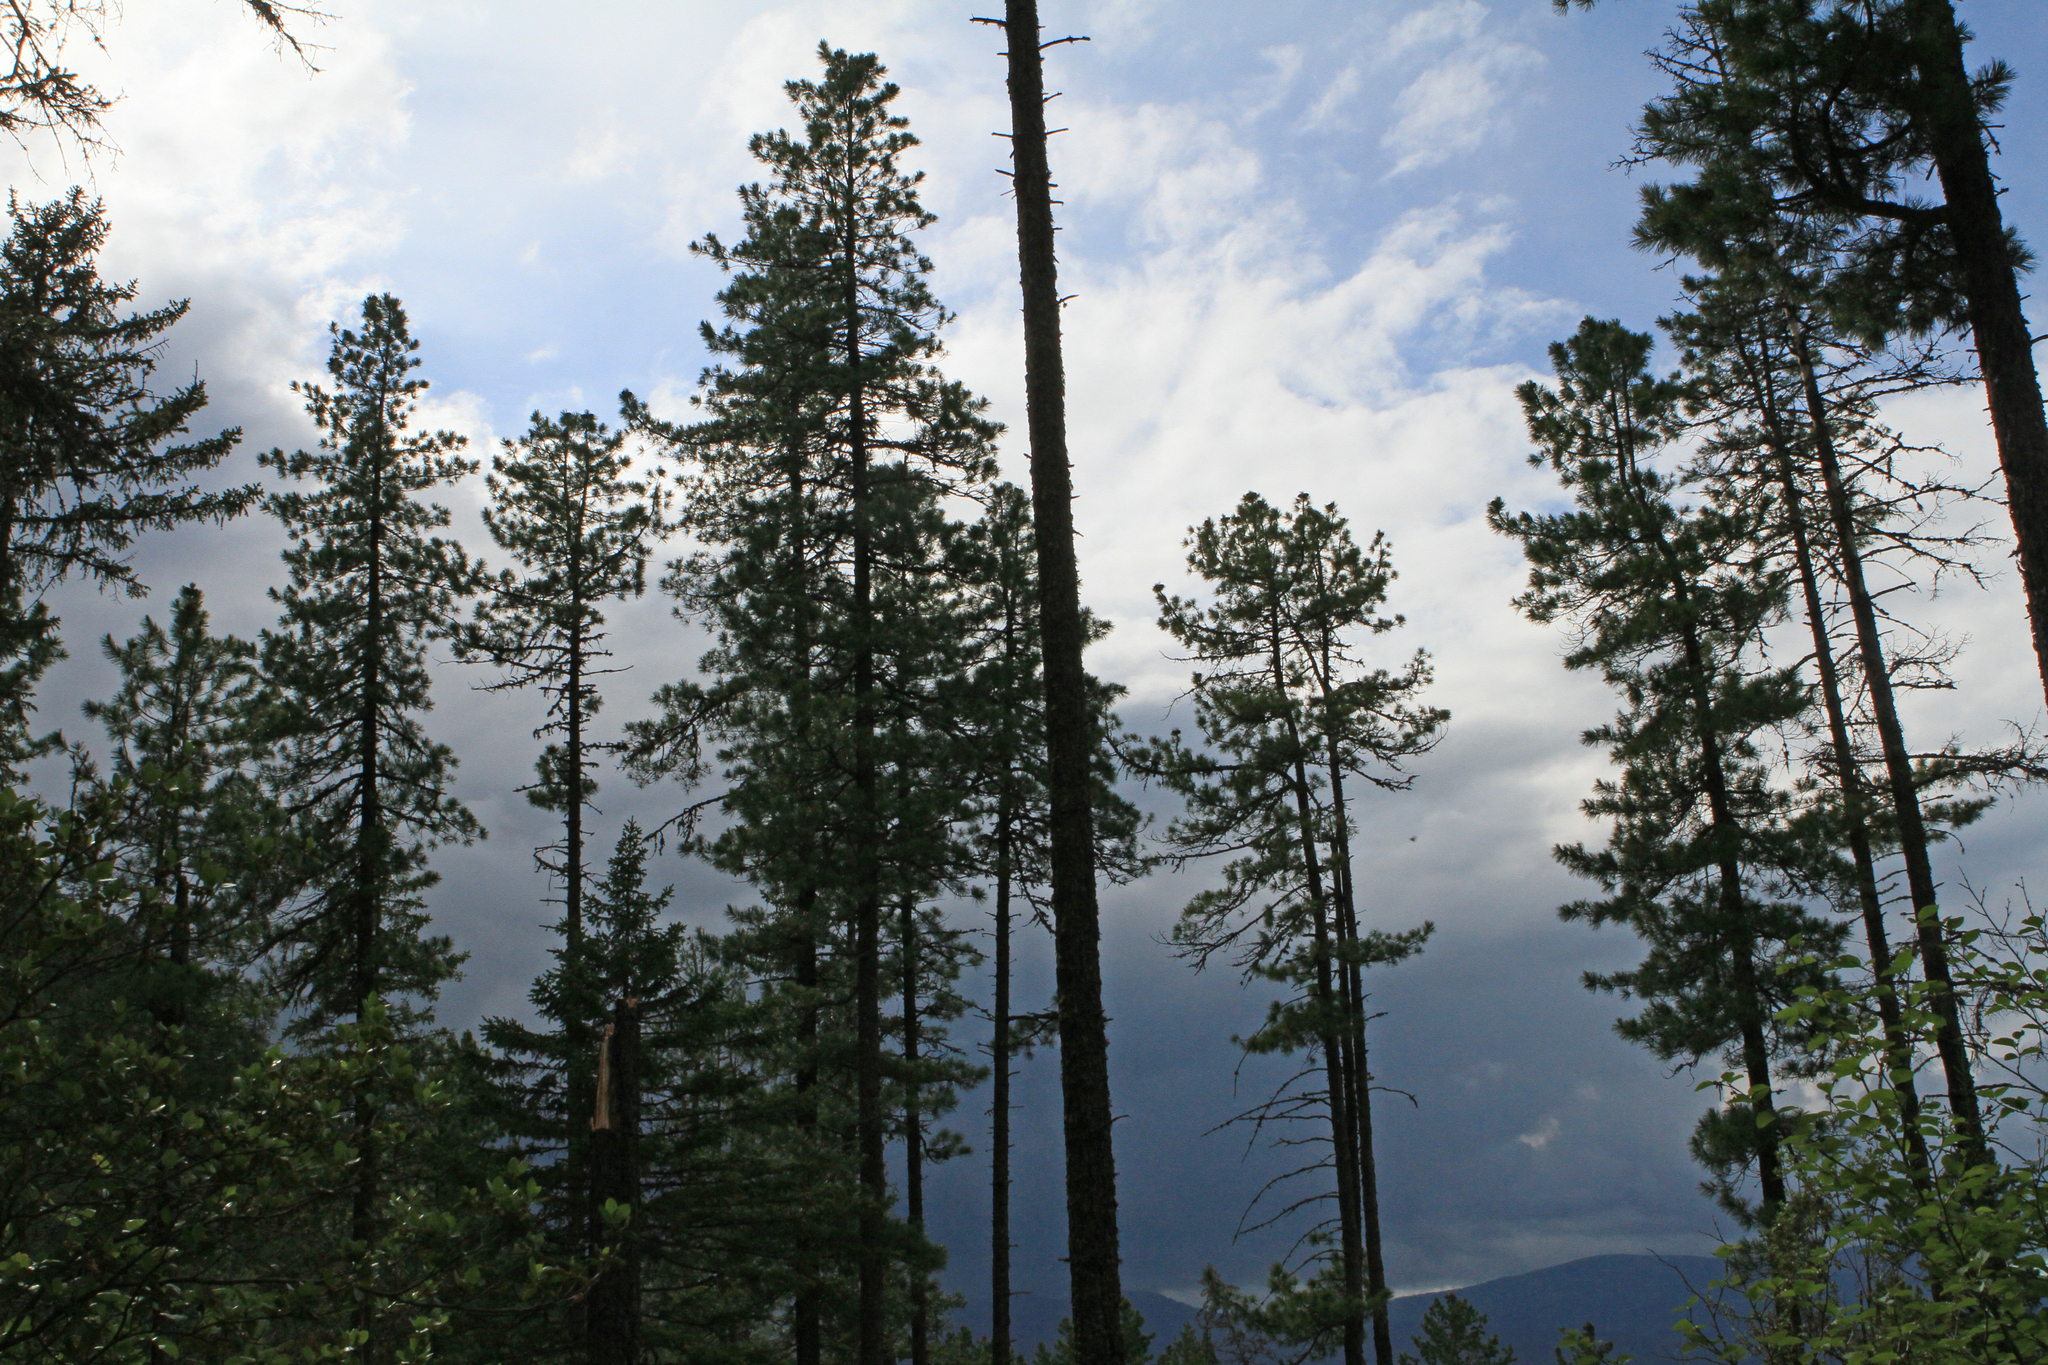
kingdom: Plantae
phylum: Tracheophyta
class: Pinopsida
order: Pinales
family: Pinaceae
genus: Pinus
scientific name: Pinus sibirica
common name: Siberian pine
